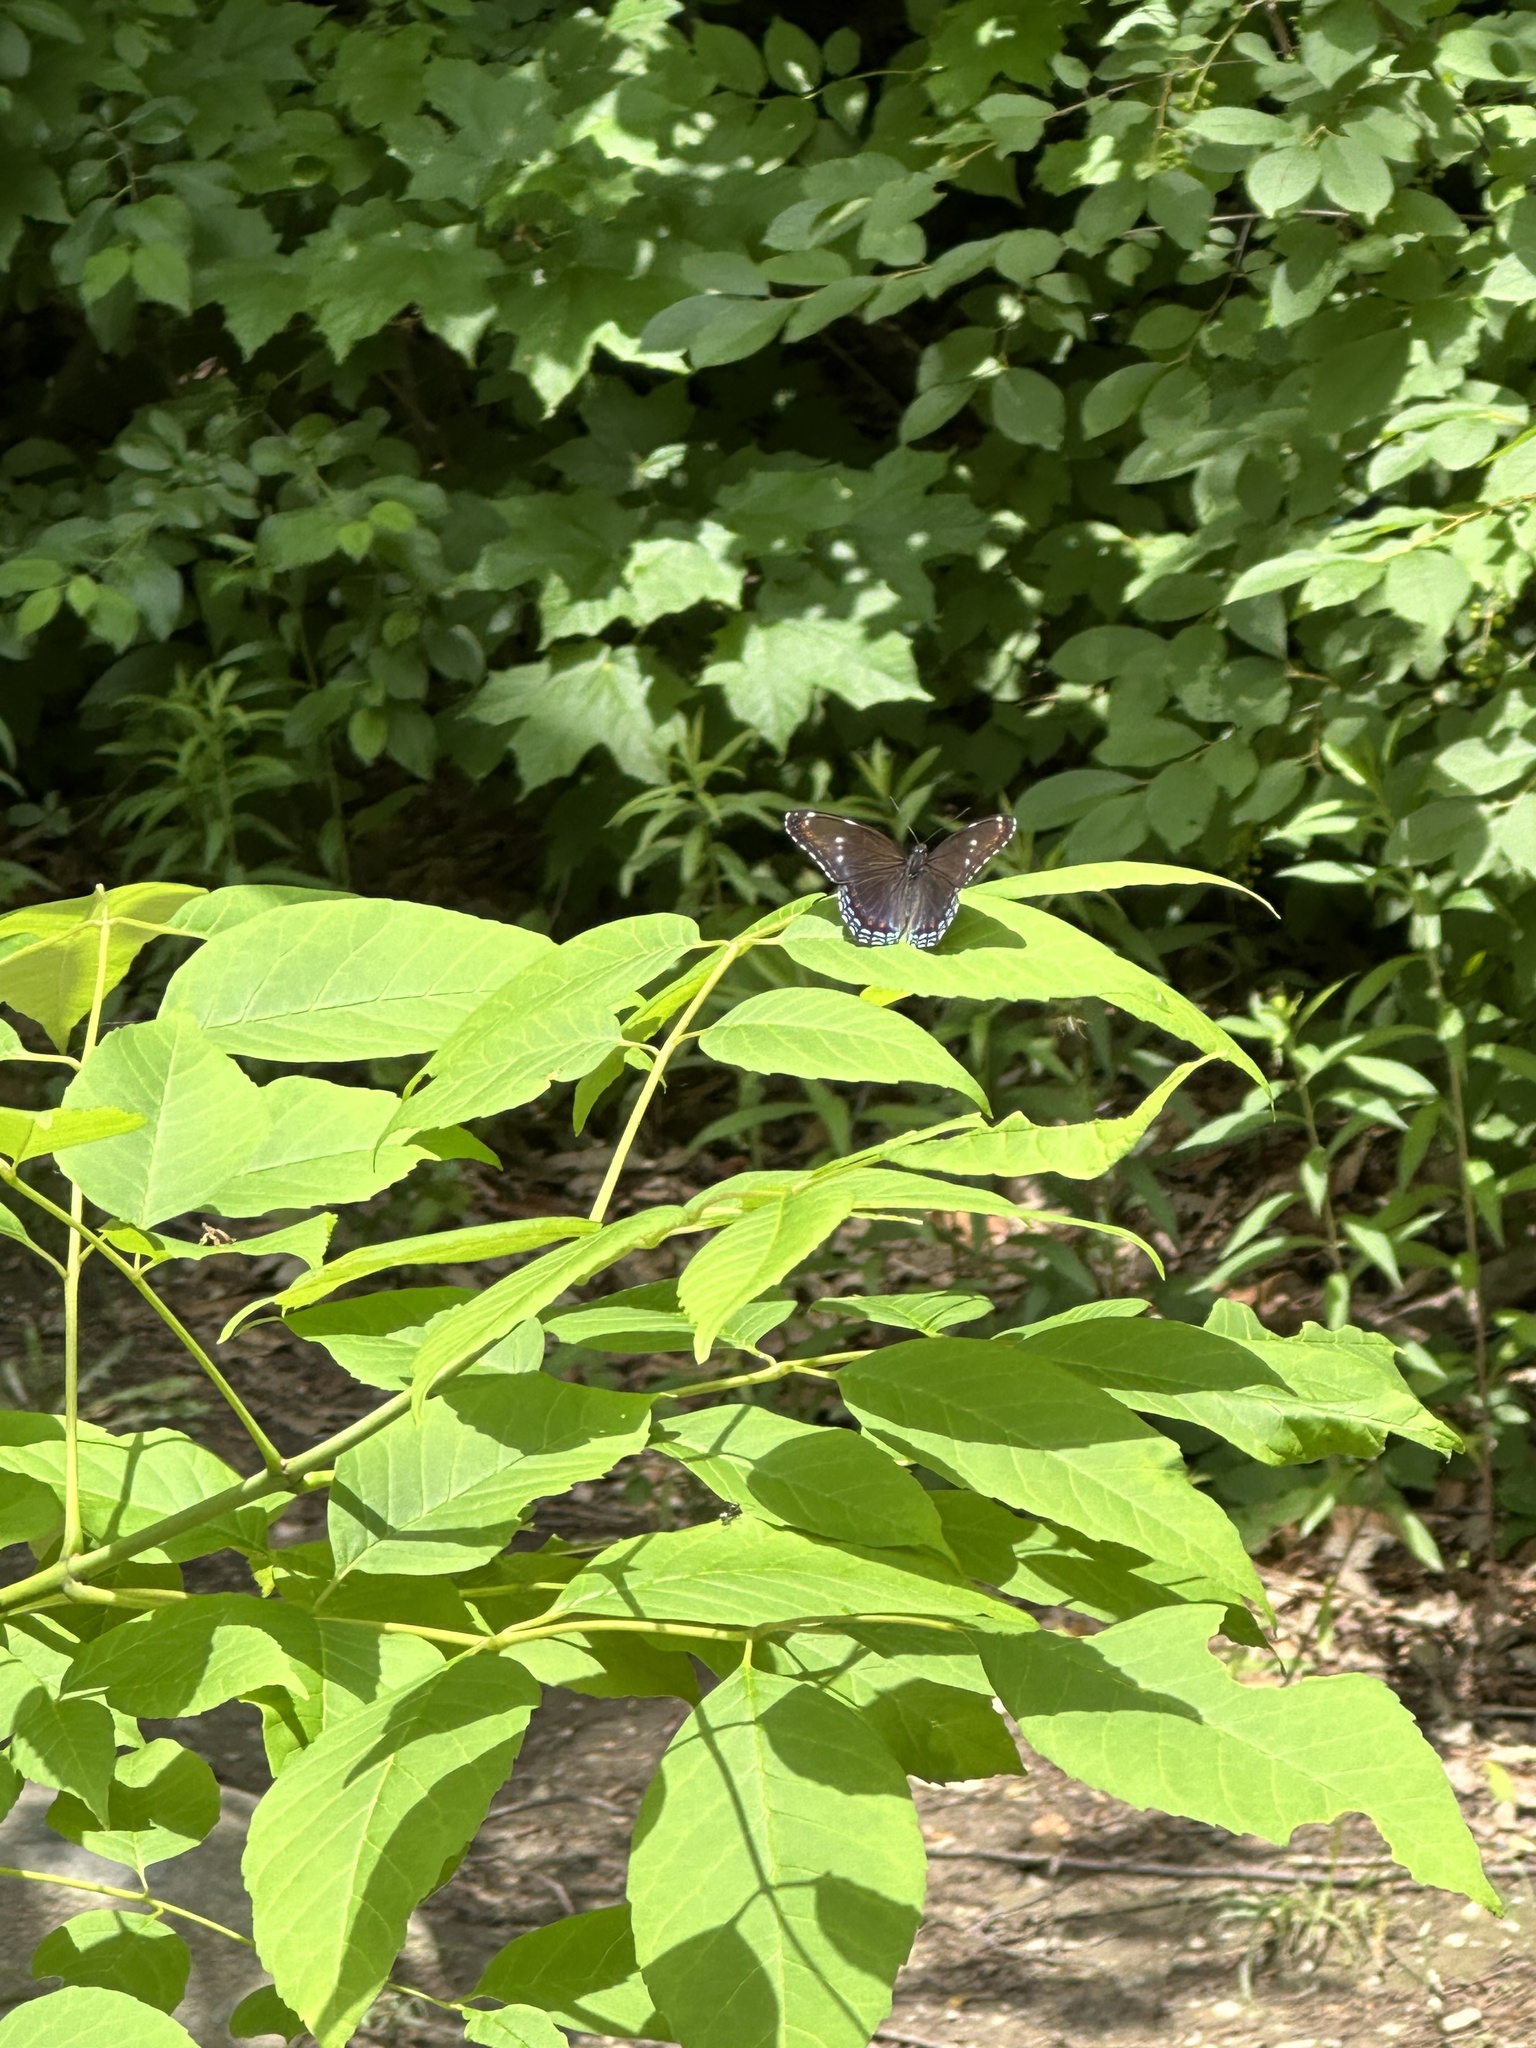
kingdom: Animalia
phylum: Arthropoda
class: Insecta
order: Lepidoptera
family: Nymphalidae
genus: Limenitis
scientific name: Limenitis
